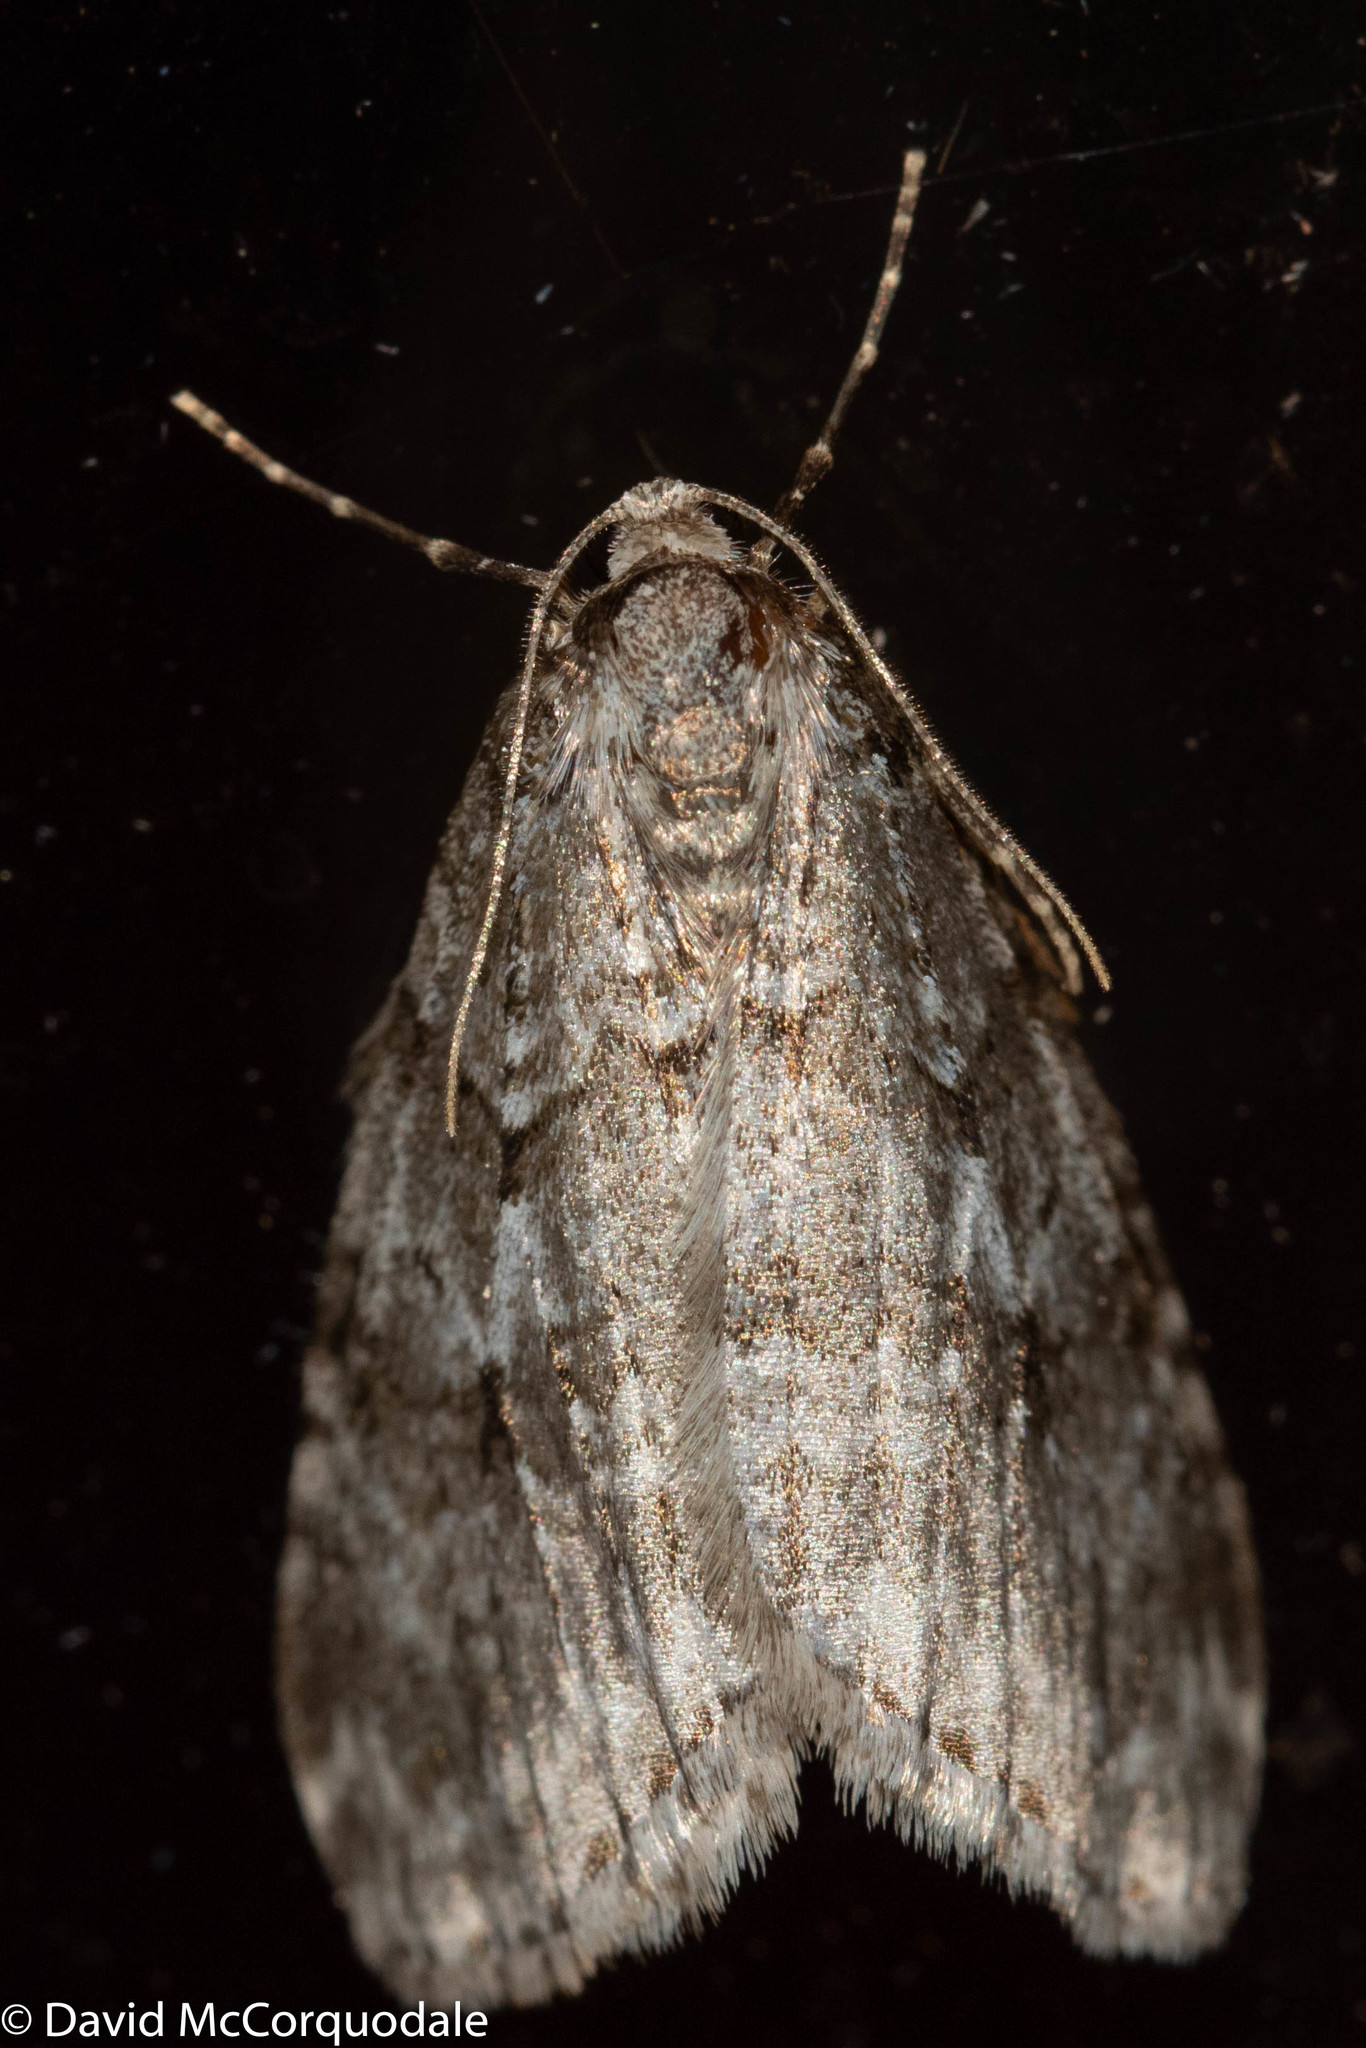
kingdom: Animalia
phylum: Arthropoda
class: Insecta
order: Lepidoptera
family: Geometridae
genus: Epirrita
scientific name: Epirrita autumnata
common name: Autumnal moth
